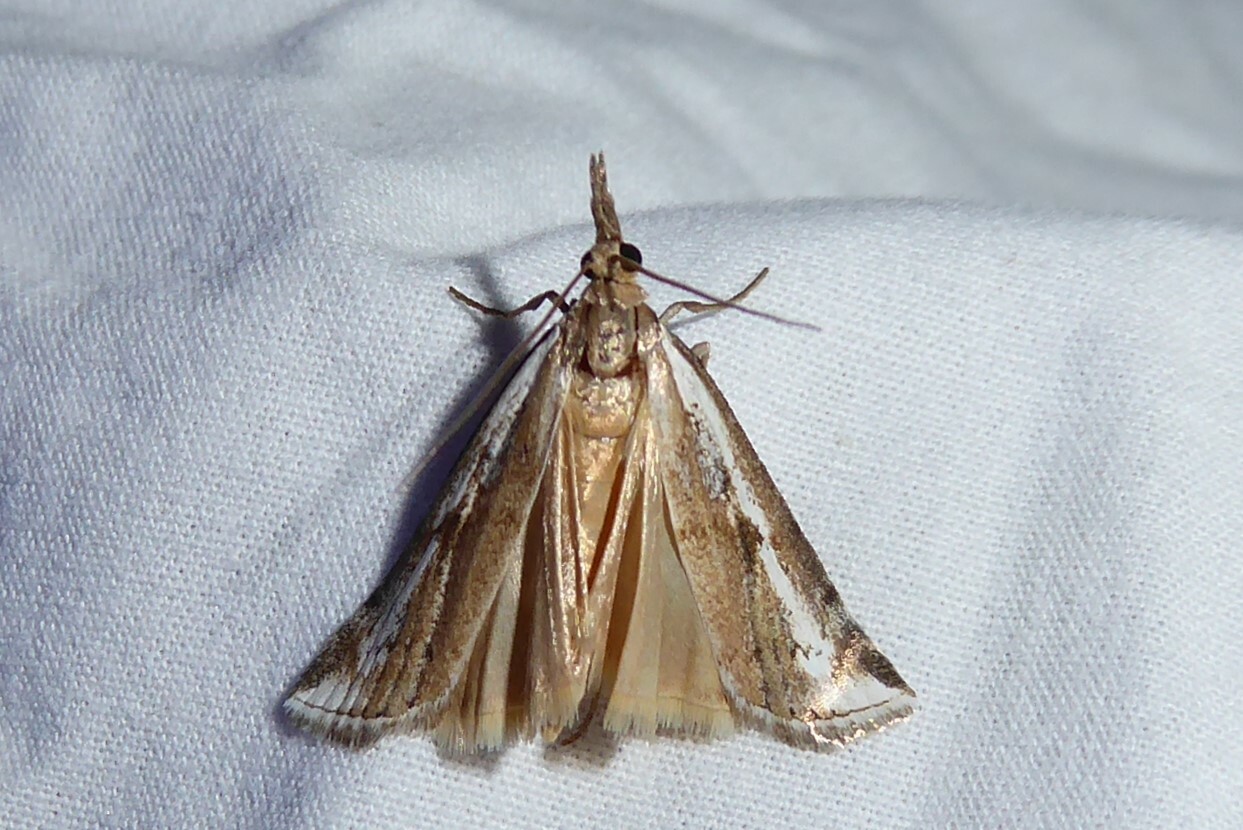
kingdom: Animalia
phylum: Arthropoda
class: Insecta
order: Lepidoptera
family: Crambidae
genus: Orocrambus
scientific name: Orocrambus vulgaris
